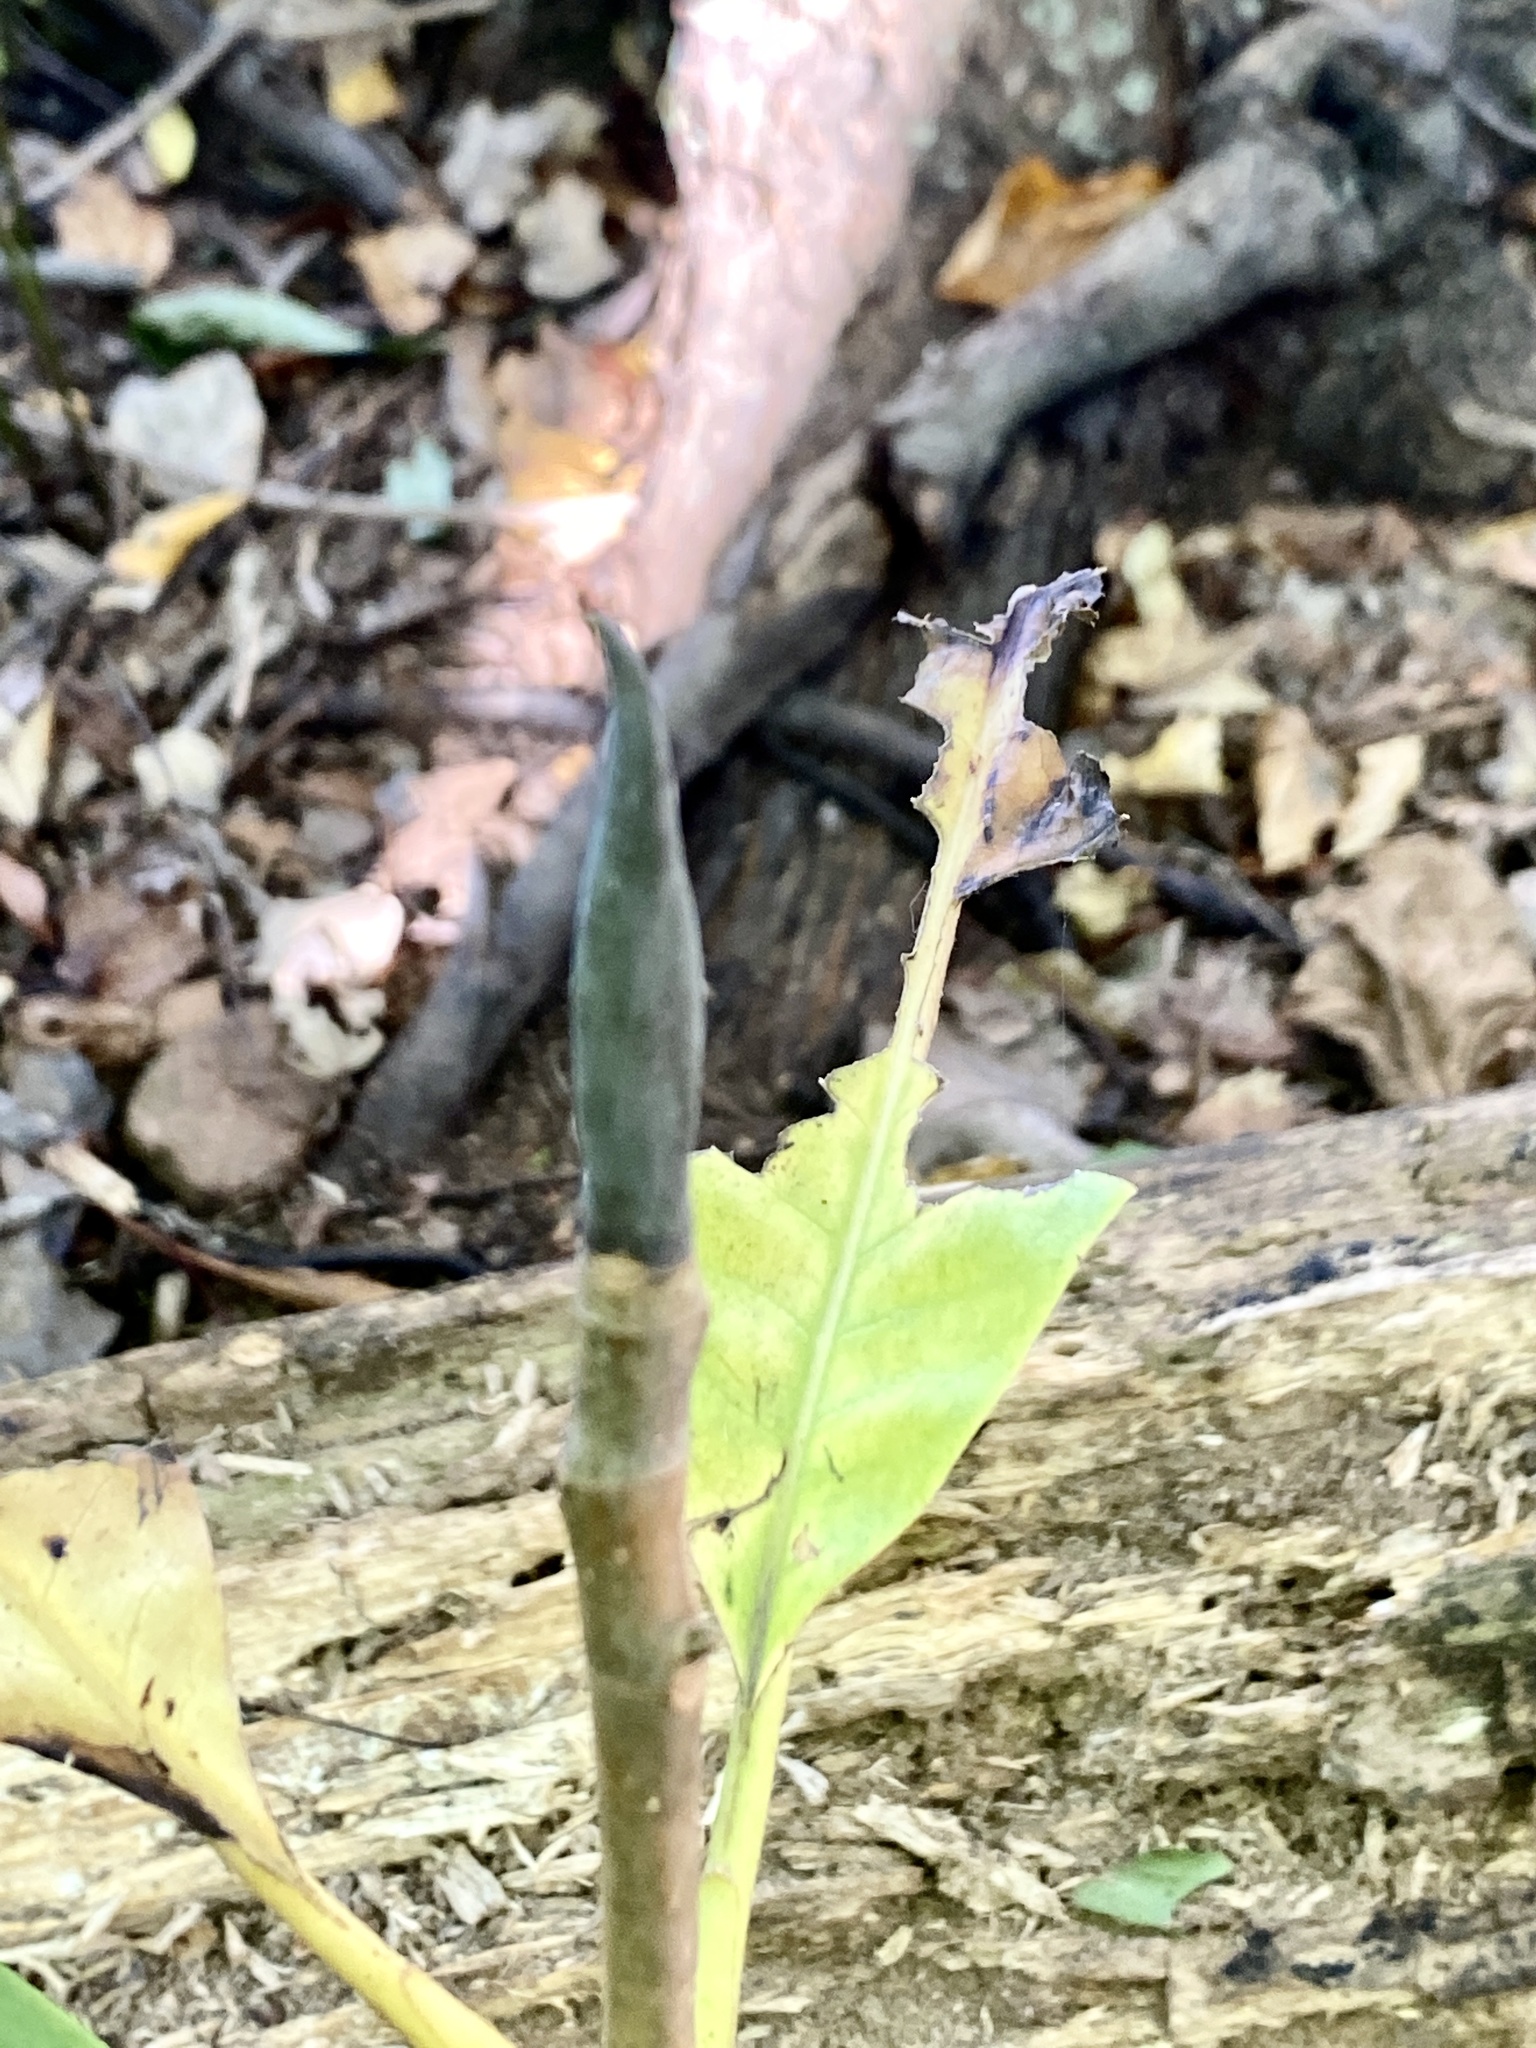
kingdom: Plantae
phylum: Tracheophyta
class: Magnoliopsida
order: Magnoliales
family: Magnoliaceae
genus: Magnolia
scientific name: Magnolia tripetala
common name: Umbrella magnolia
